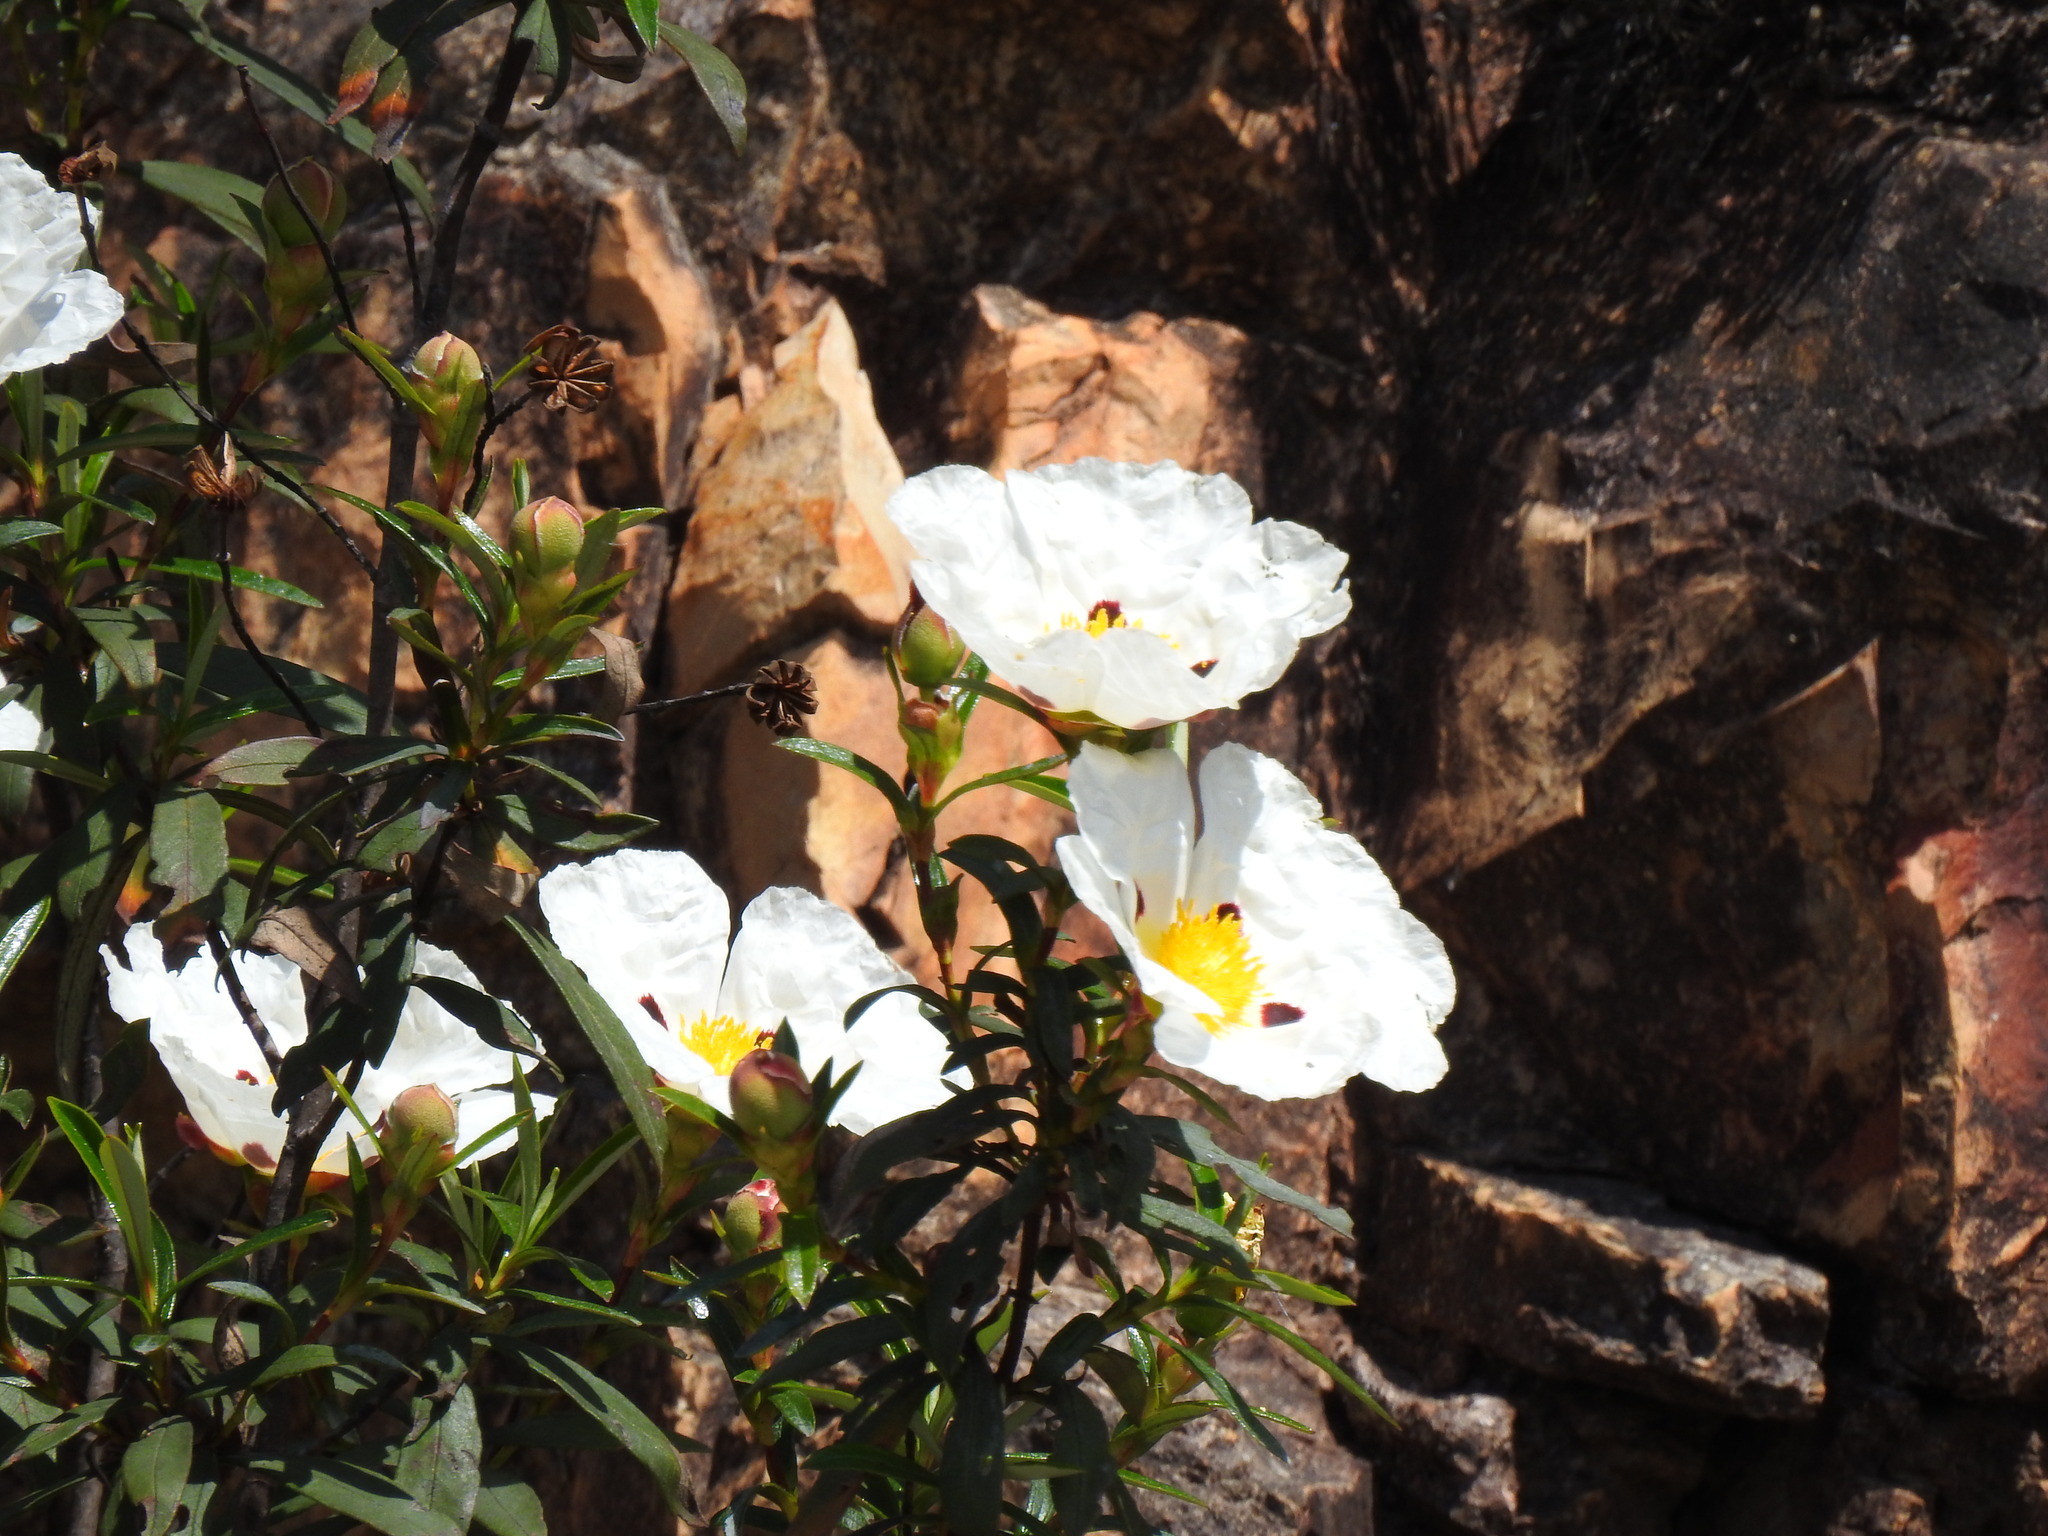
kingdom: Plantae
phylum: Tracheophyta
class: Magnoliopsida
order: Malvales
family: Cistaceae
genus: Cistus
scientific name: Cistus ladanifer
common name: Common gum cistus
